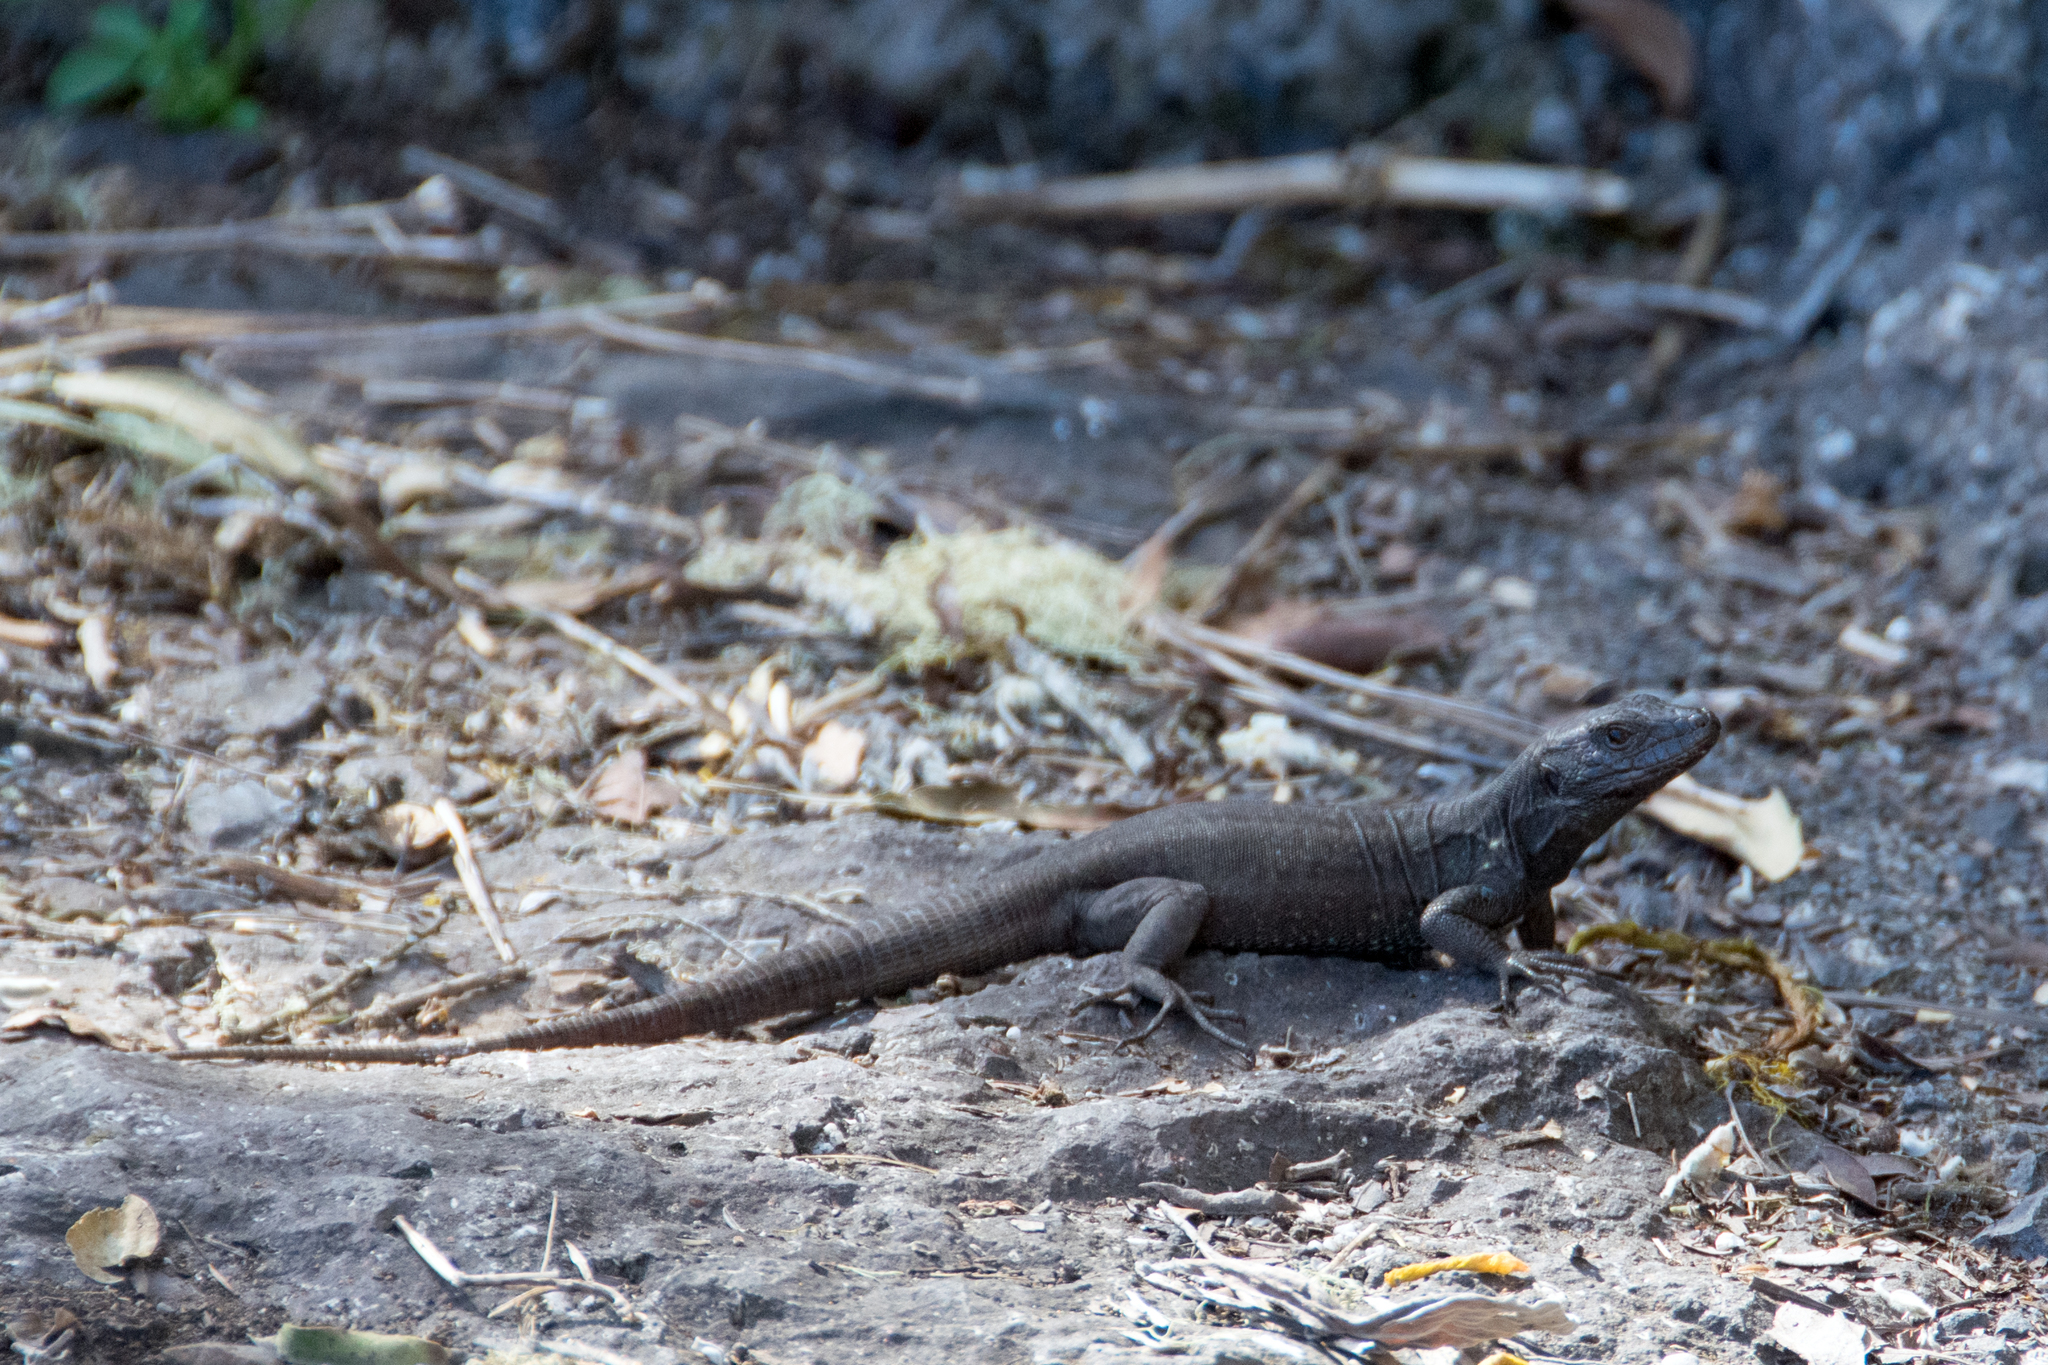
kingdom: Animalia
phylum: Chordata
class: Squamata
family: Lacertidae
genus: Gallotia
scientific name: Gallotia caesaris
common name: Boettger's lizard
